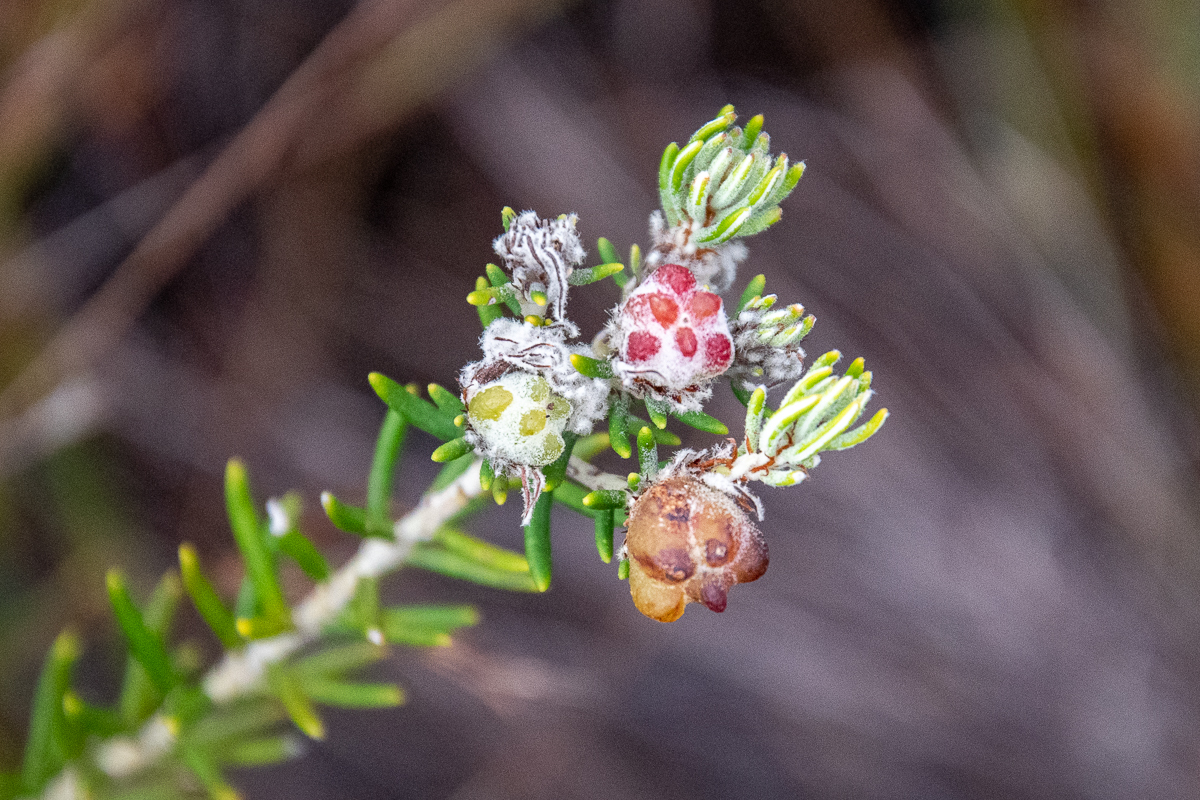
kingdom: Plantae
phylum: Tracheophyta
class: Magnoliopsida
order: Rosales
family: Rhamnaceae
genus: Trichocephalus
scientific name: Trichocephalus stipularis
